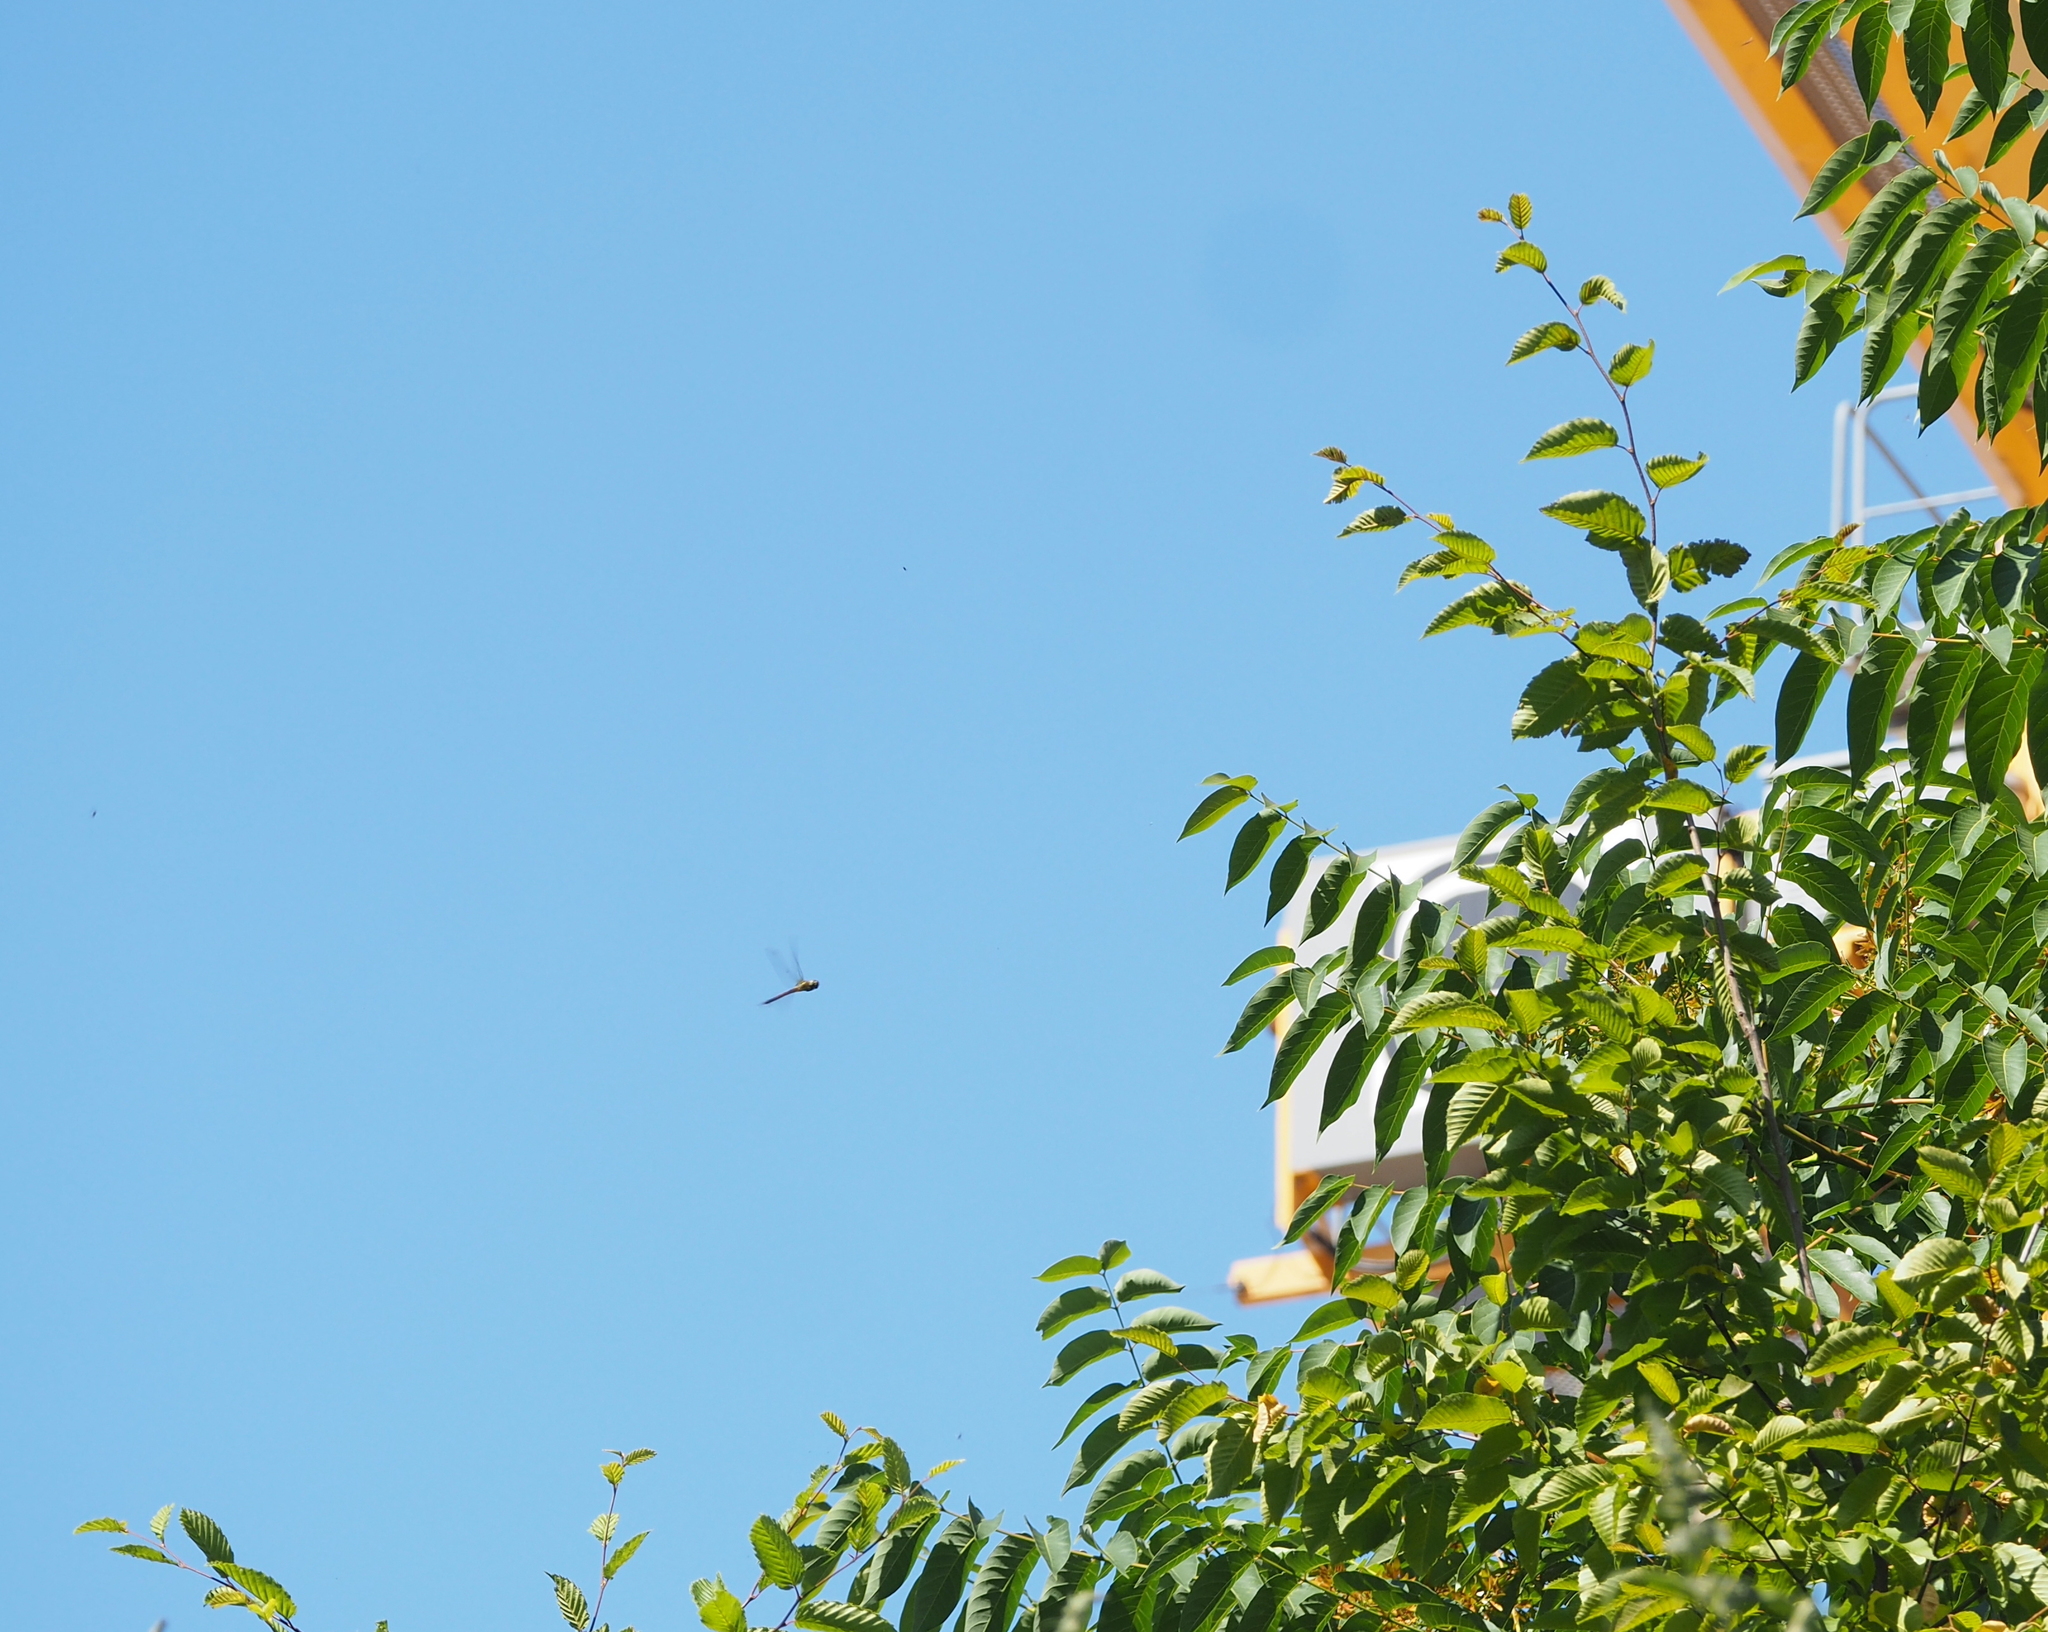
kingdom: Animalia
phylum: Arthropoda
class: Insecta
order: Odonata
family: Aeshnidae
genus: Aeshna
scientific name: Aeshna affinis
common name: Southern migrant hawker
